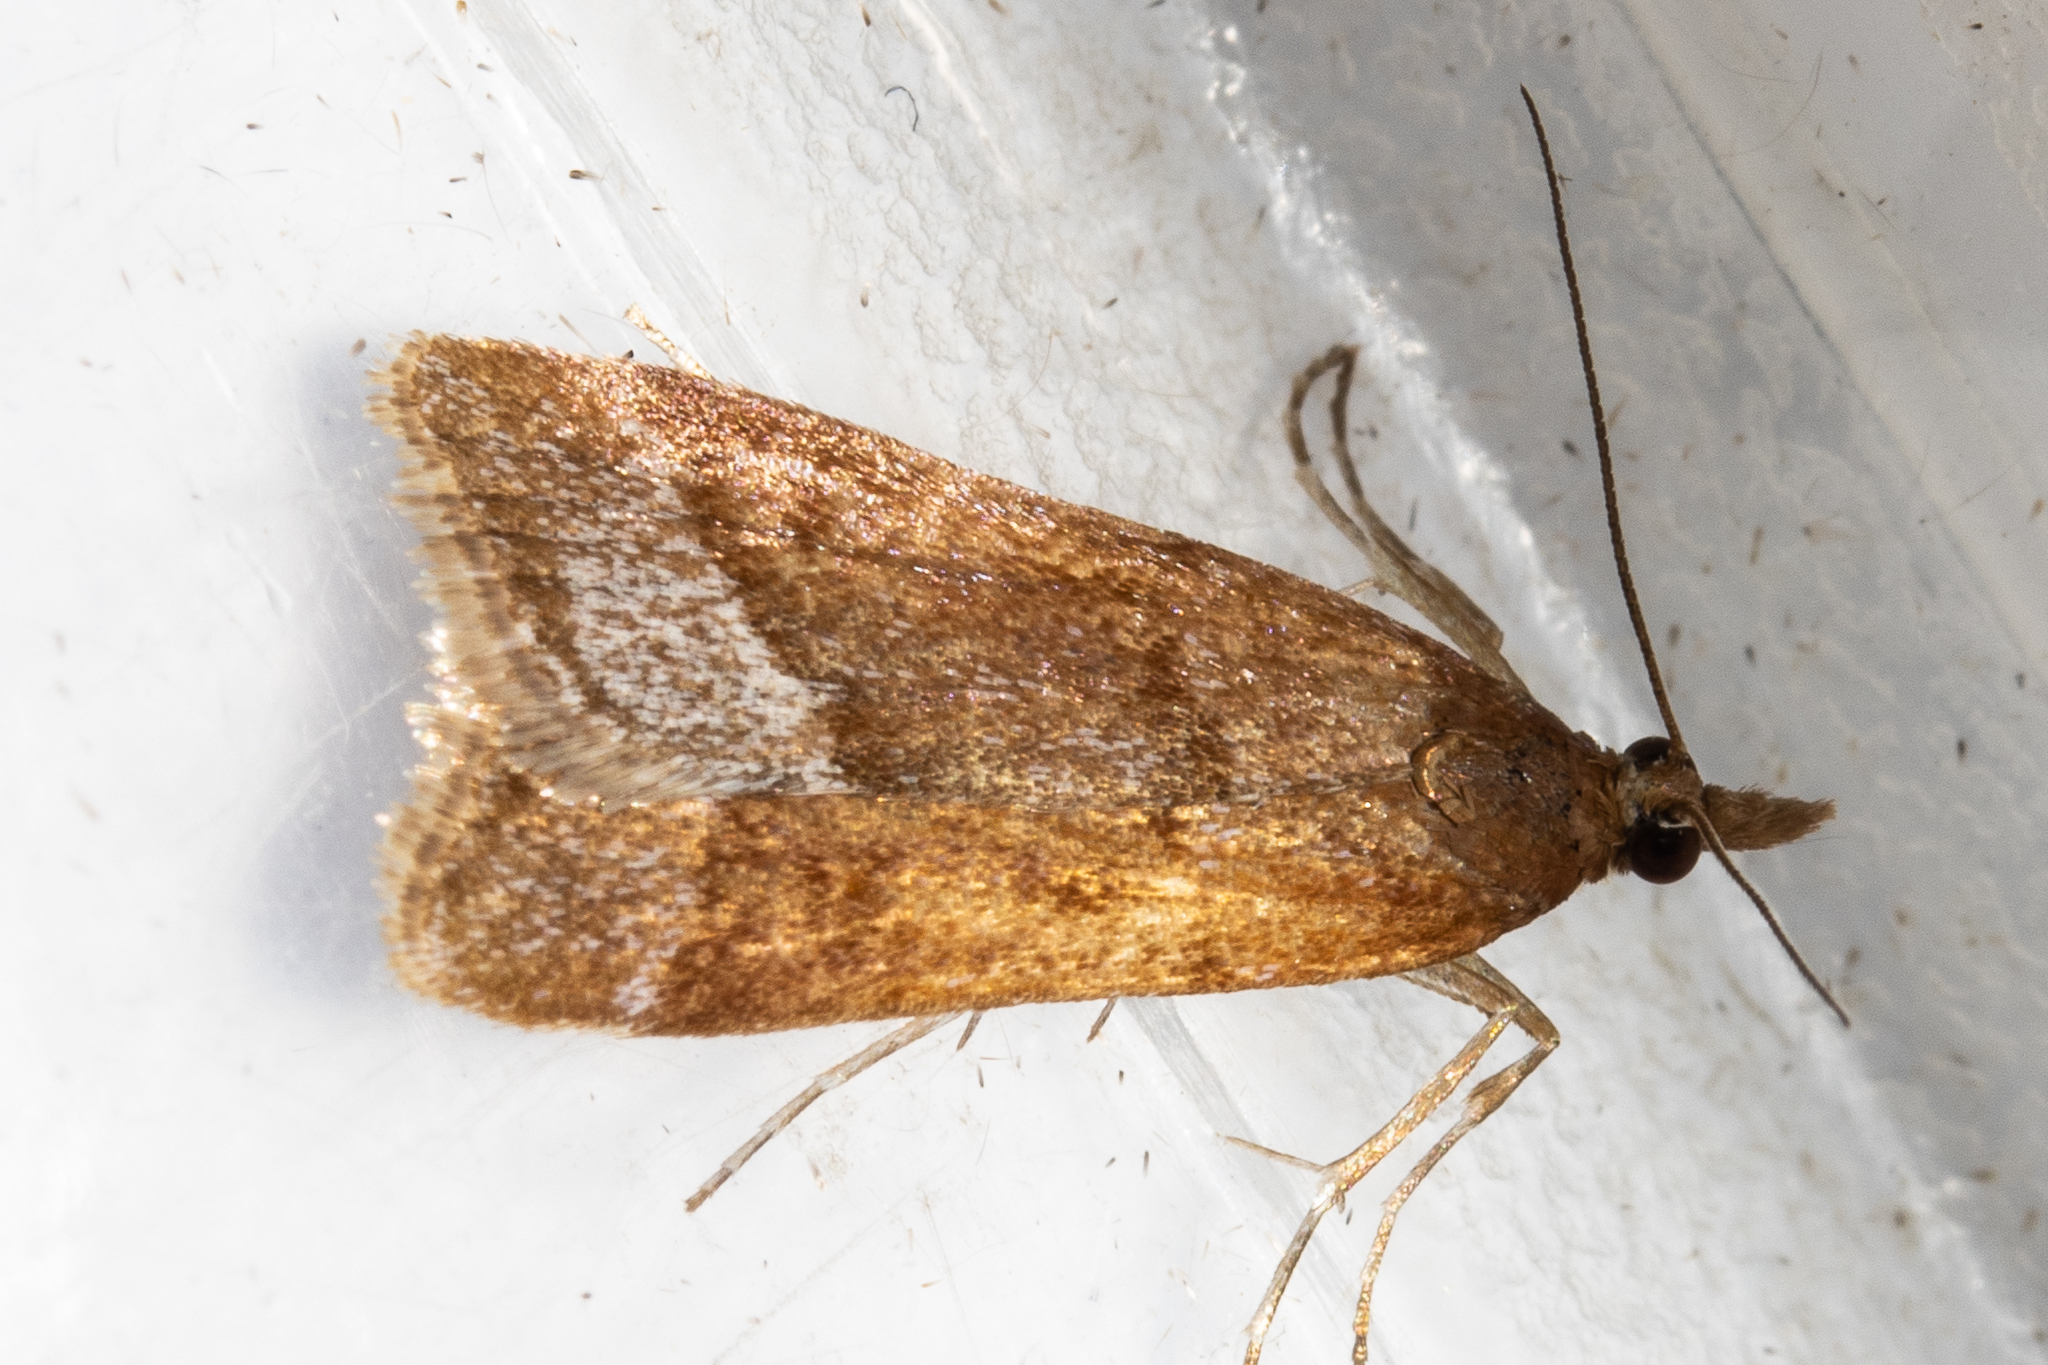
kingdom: Animalia
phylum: Arthropoda
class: Insecta
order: Lepidoptera
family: Crambidae
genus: Eudonia
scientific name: Eudonia feredayi
